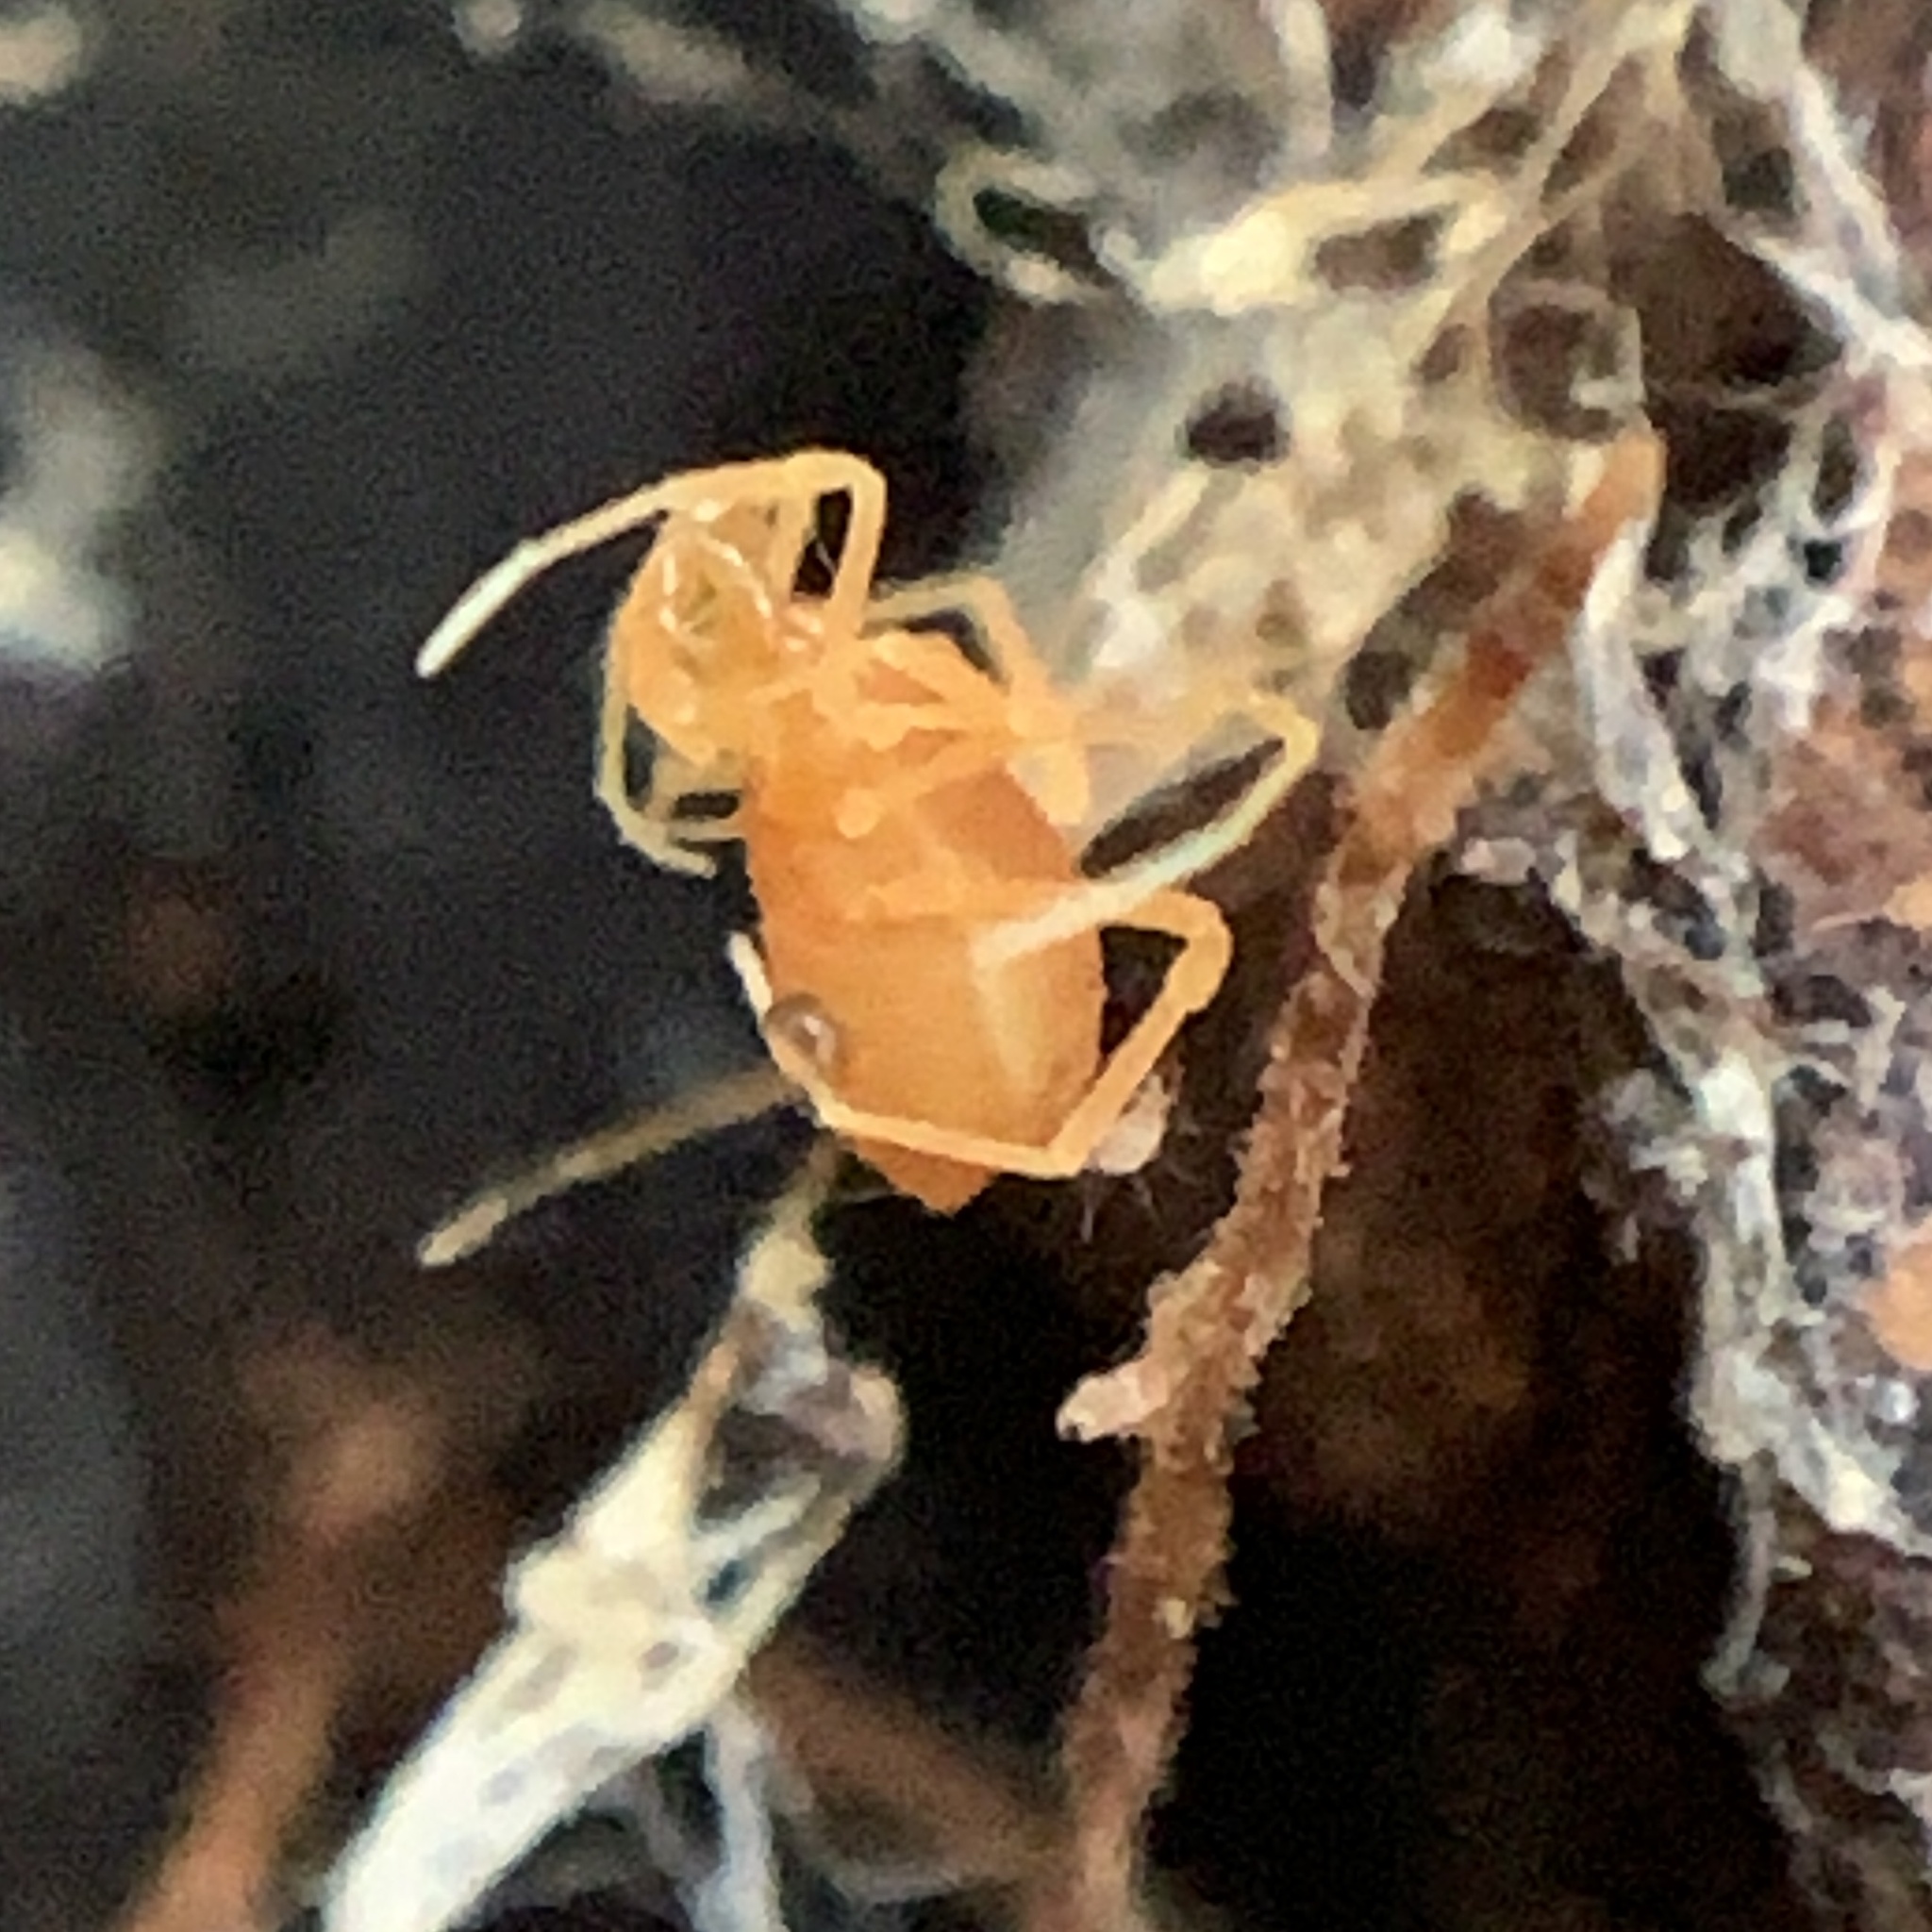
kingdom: Animalia
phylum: Arthropoda
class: Arachnida
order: Opiliones
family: Phalangodidae
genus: Scotolemon
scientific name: Scotolemon doriae
